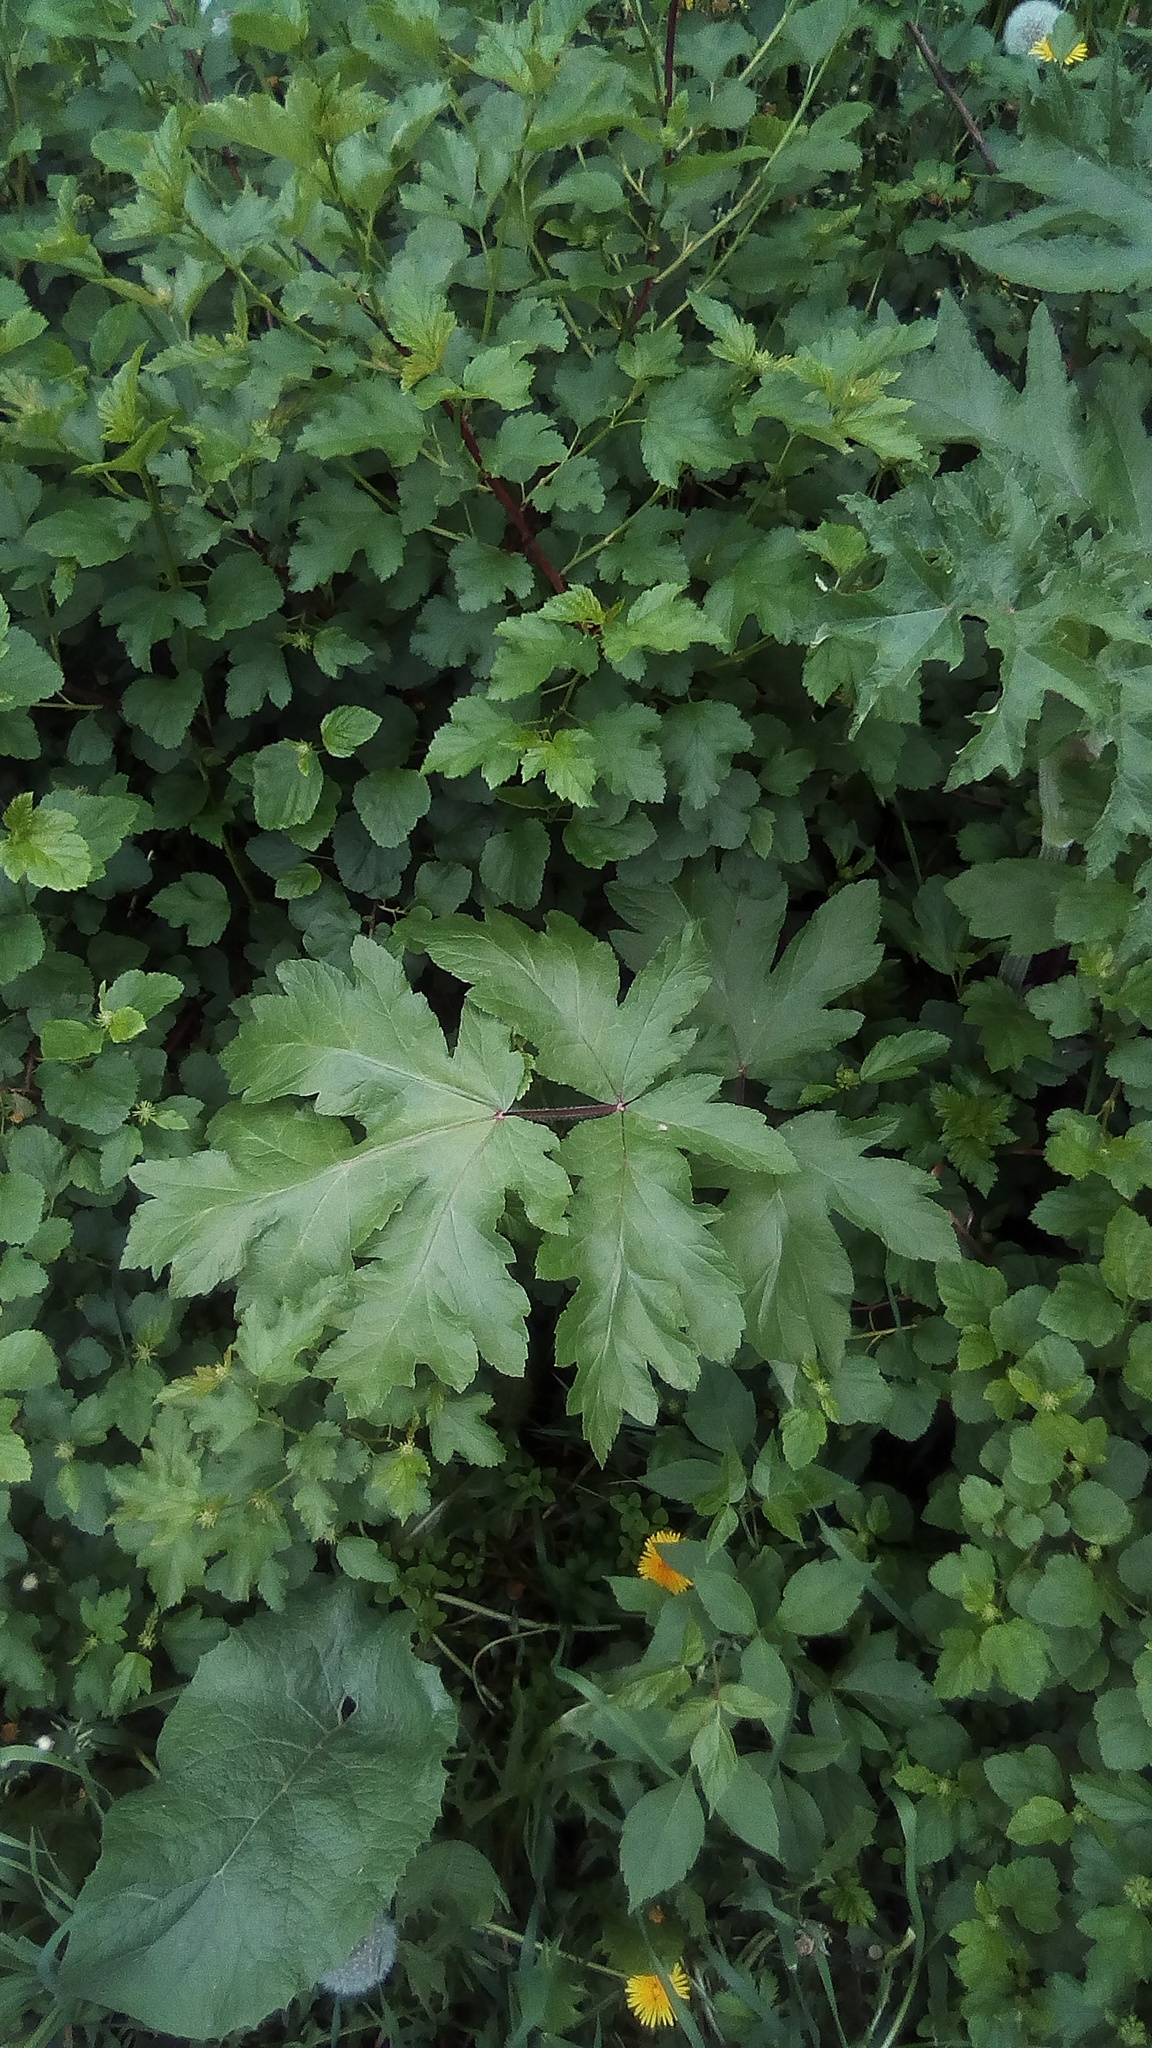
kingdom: Plantae
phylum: Tracheophyta
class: Magnoliopsida
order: Apiales
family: Apiaceae
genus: Heracleum
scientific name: Heracleum sosnowskyi
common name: Sosnowsky's hogweed
